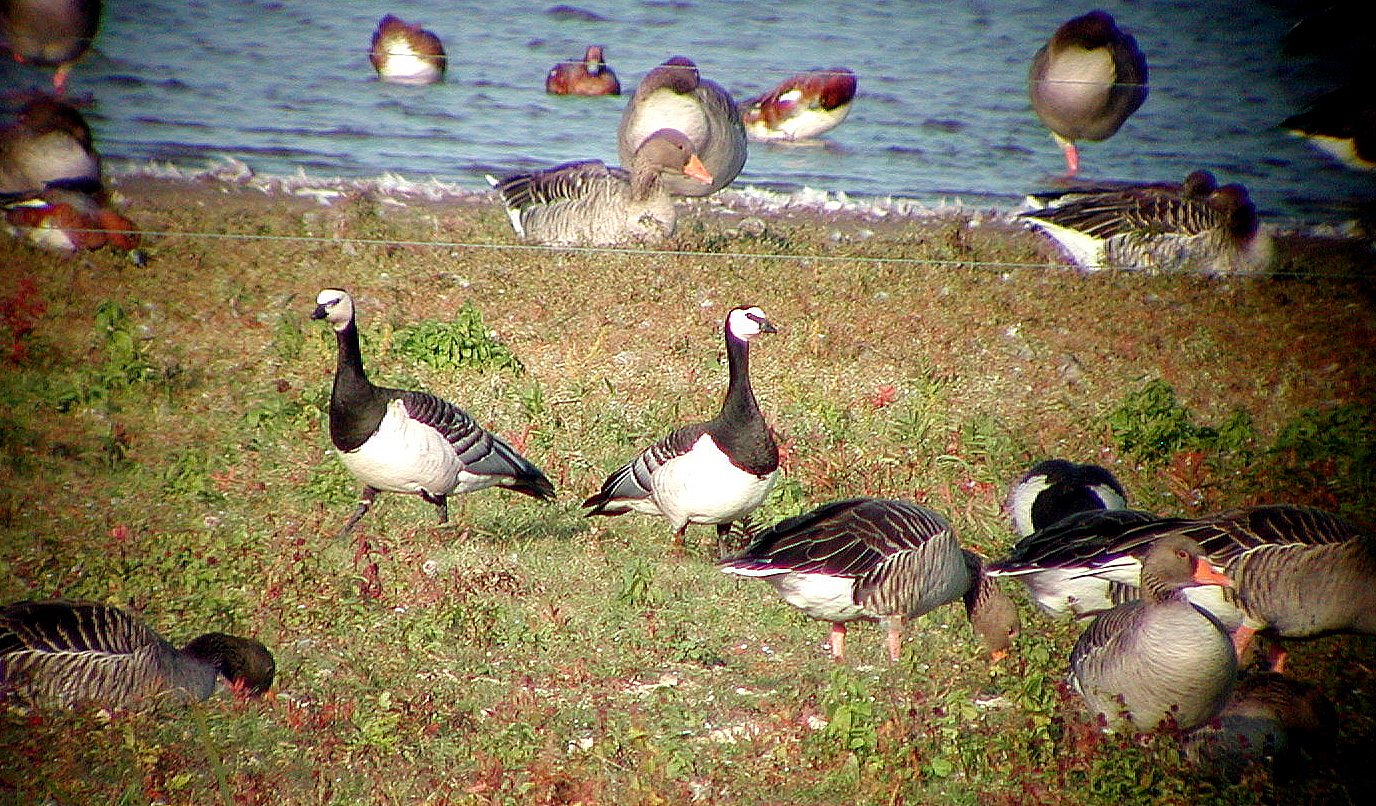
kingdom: Animalia
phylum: Chordata
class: Aves
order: Anseriformes
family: Anatidae
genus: Branta
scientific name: Branta leucopsis
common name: Barnacle goose
